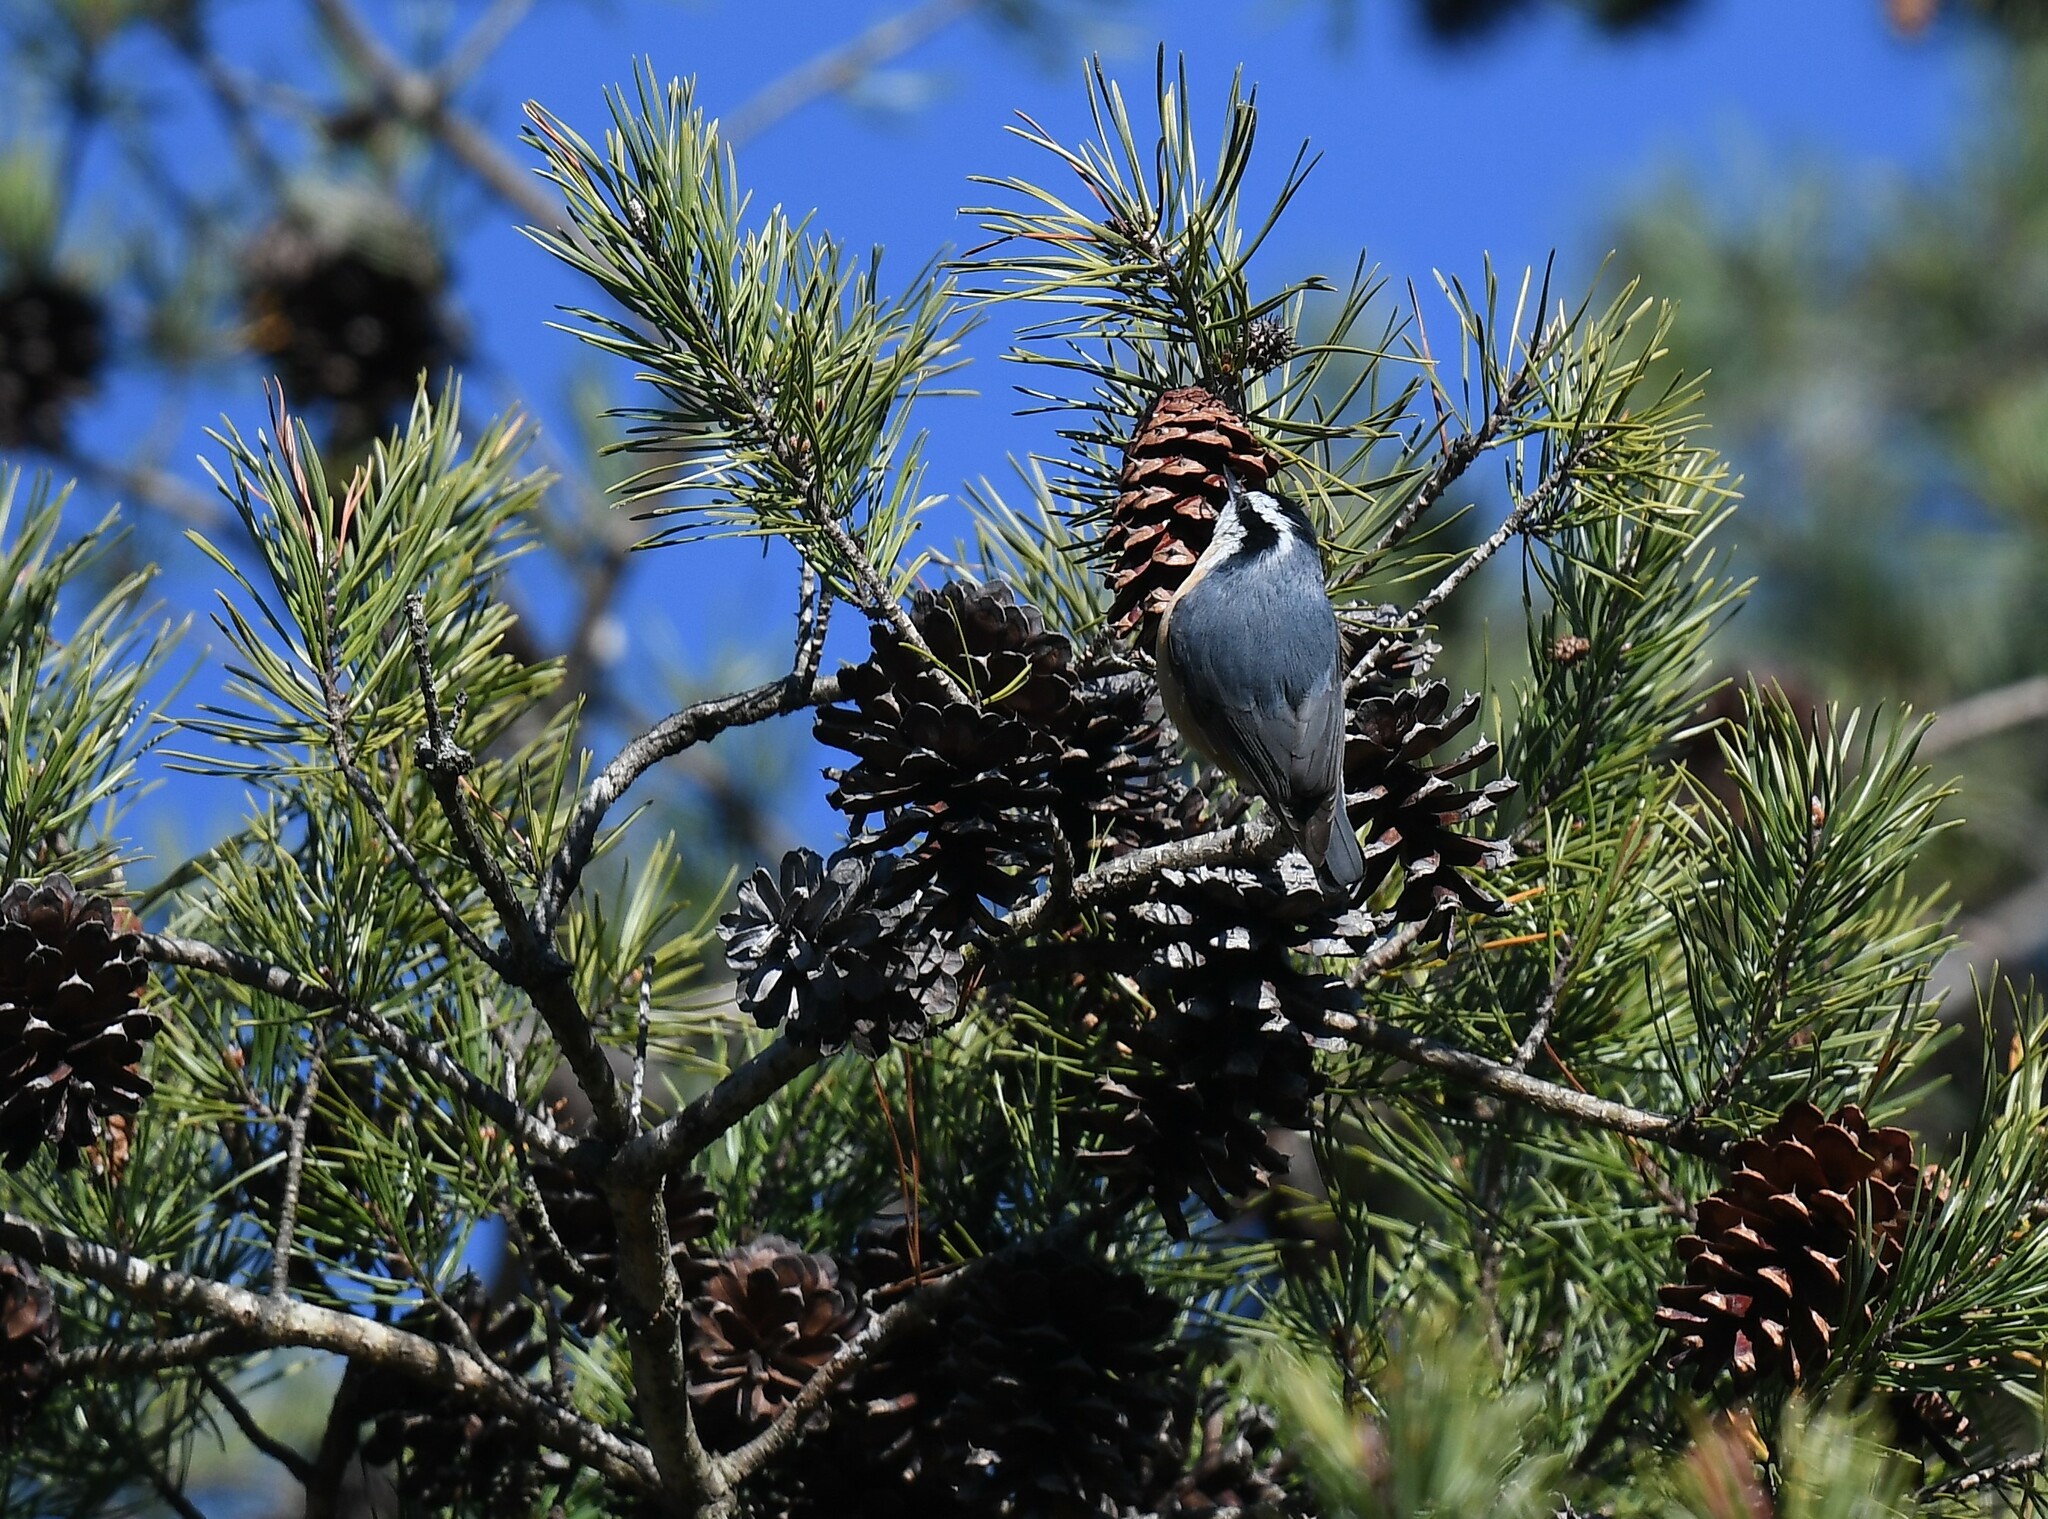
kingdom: Animalia
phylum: Chordata
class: Aves
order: Passeriformes
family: Sittidae
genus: Sitta
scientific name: Sitta canadensis
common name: Red-breasted nuthatch
